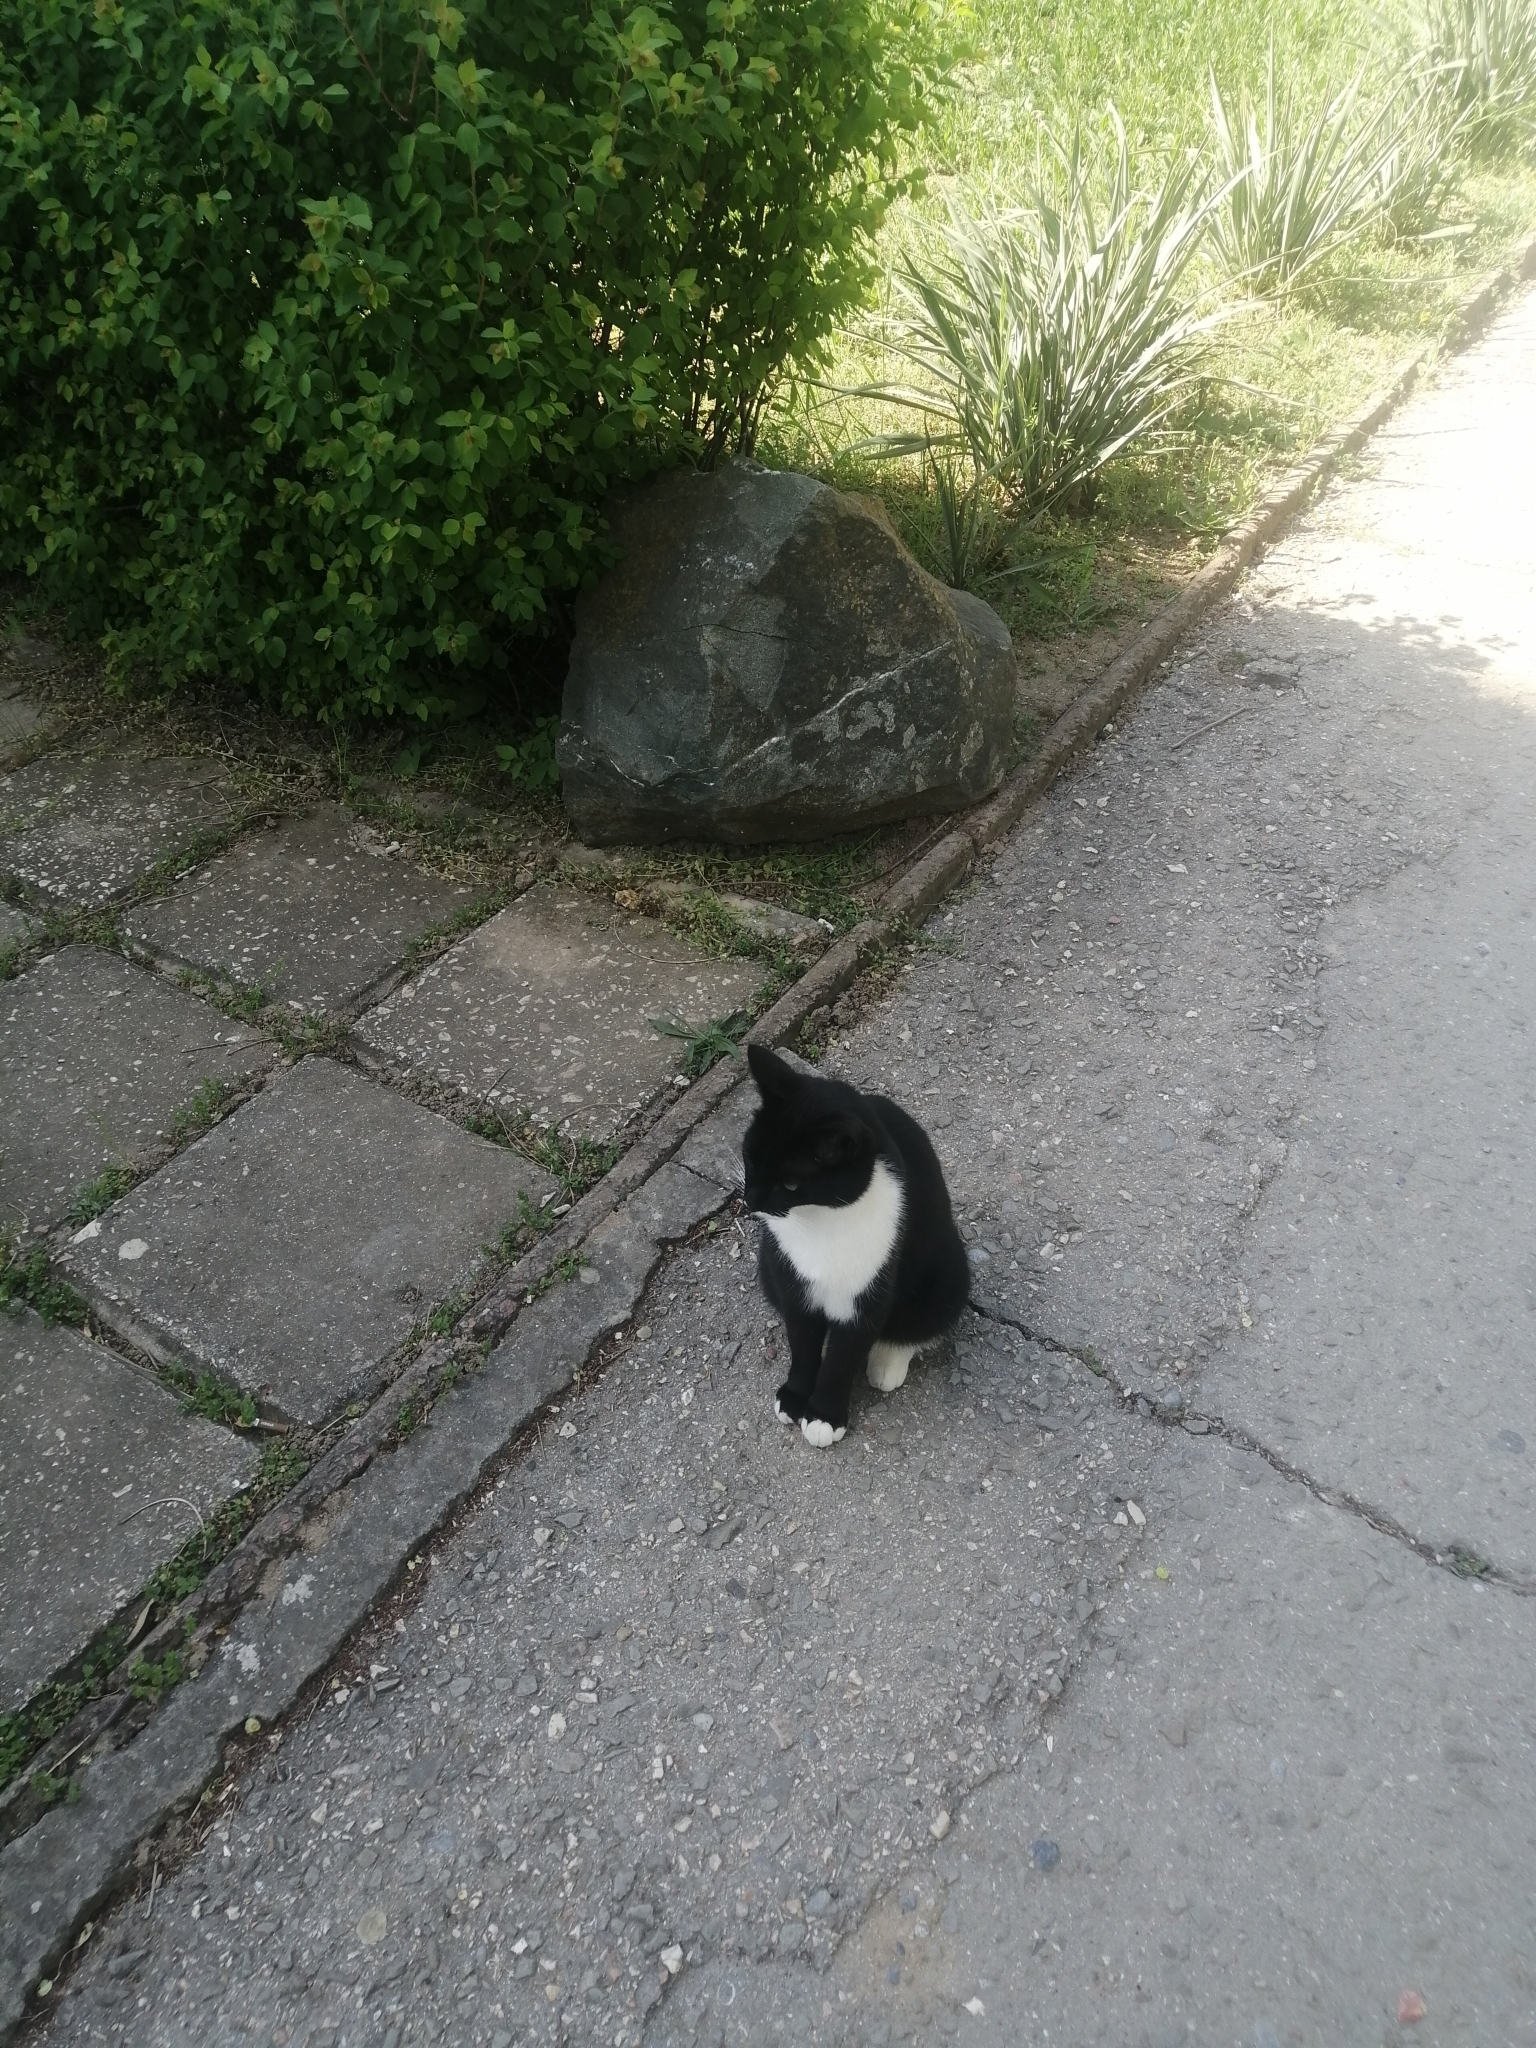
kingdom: Animalia
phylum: Chordata
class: Mammalia
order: Carnivora
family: Felidae
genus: Felis
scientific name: Felis catus
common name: Domestic cat
